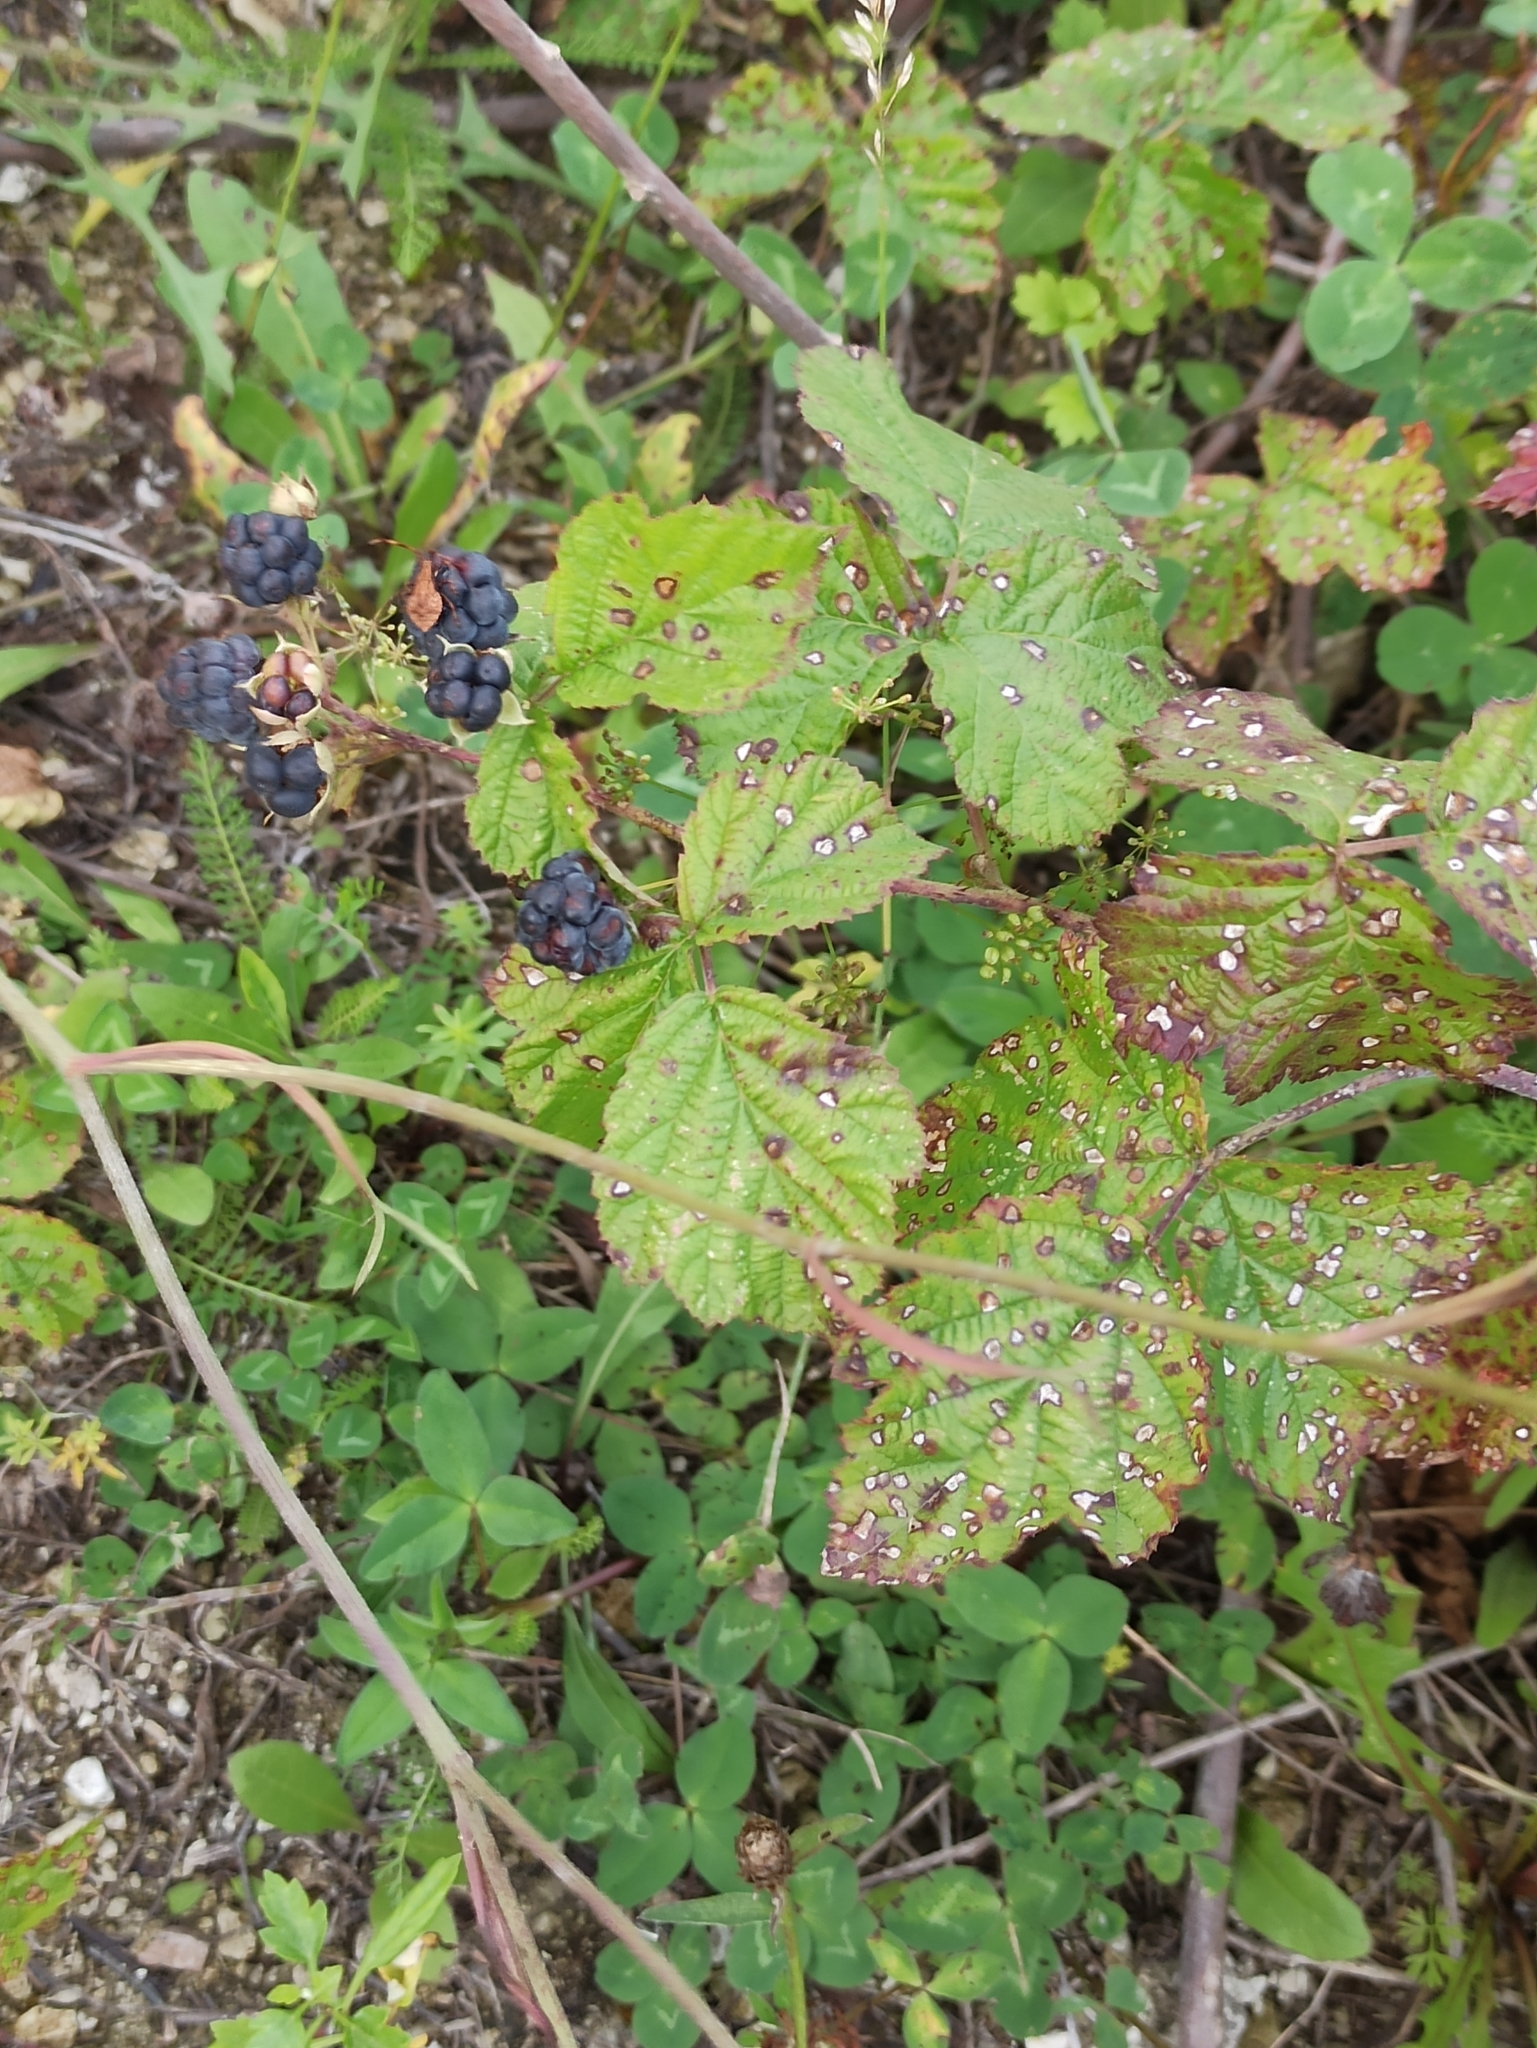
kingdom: Plantae
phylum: Tracheophyta
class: Magnoliopsida
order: Rosales
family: Rosaceae
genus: Rubus
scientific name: Rubus caesius
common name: Dewberry
